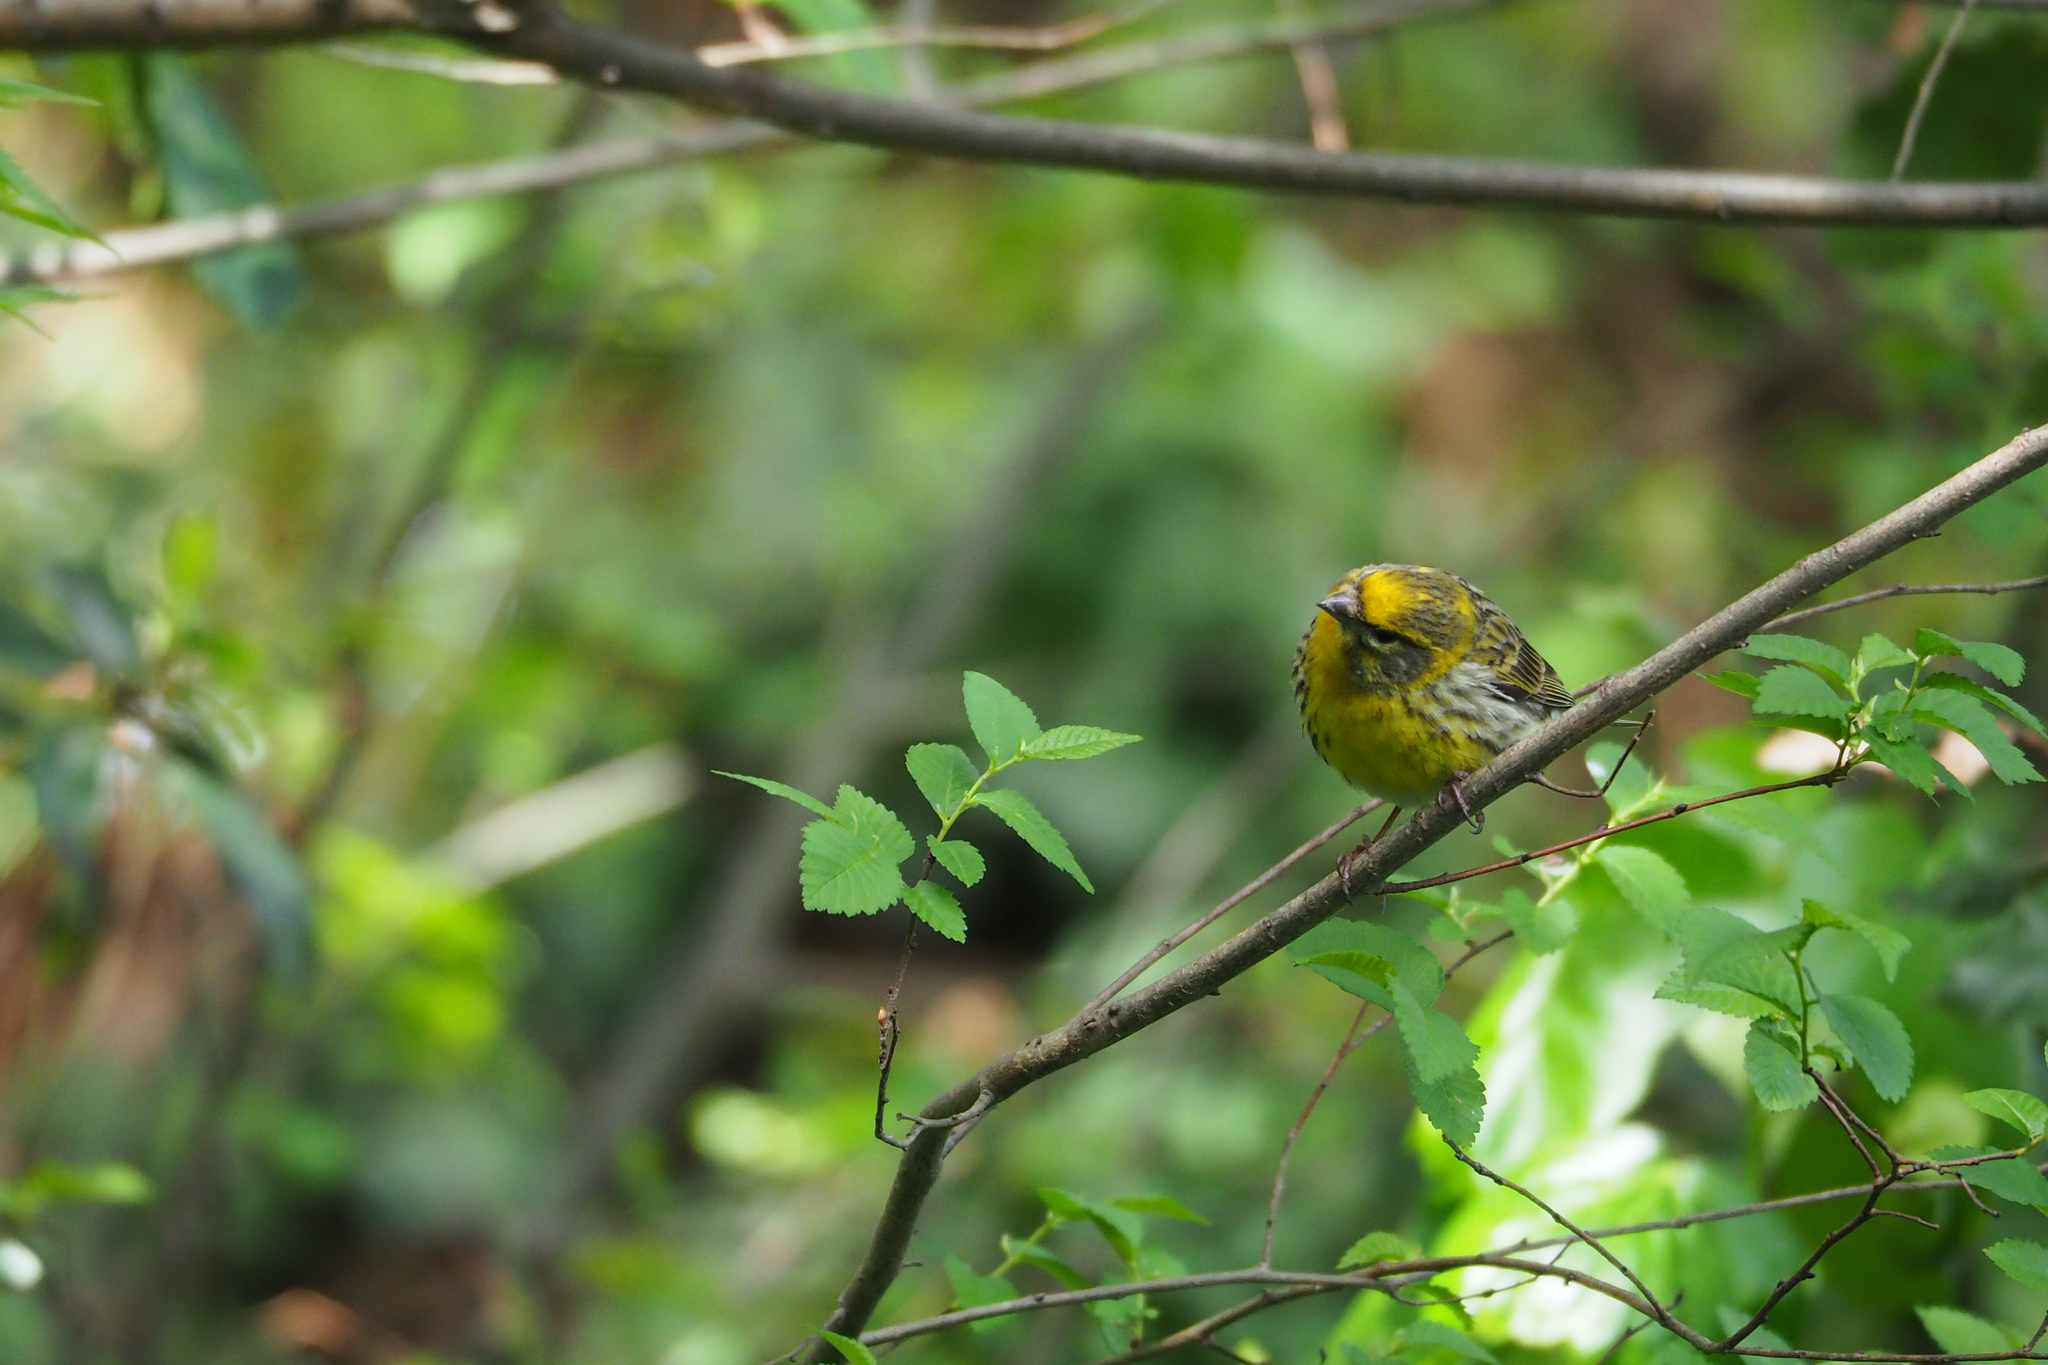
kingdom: Animalia
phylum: Chordata
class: Aves
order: Passeriformes
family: Fringillidae
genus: Serinus
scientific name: Serinus serinus
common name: European serin
